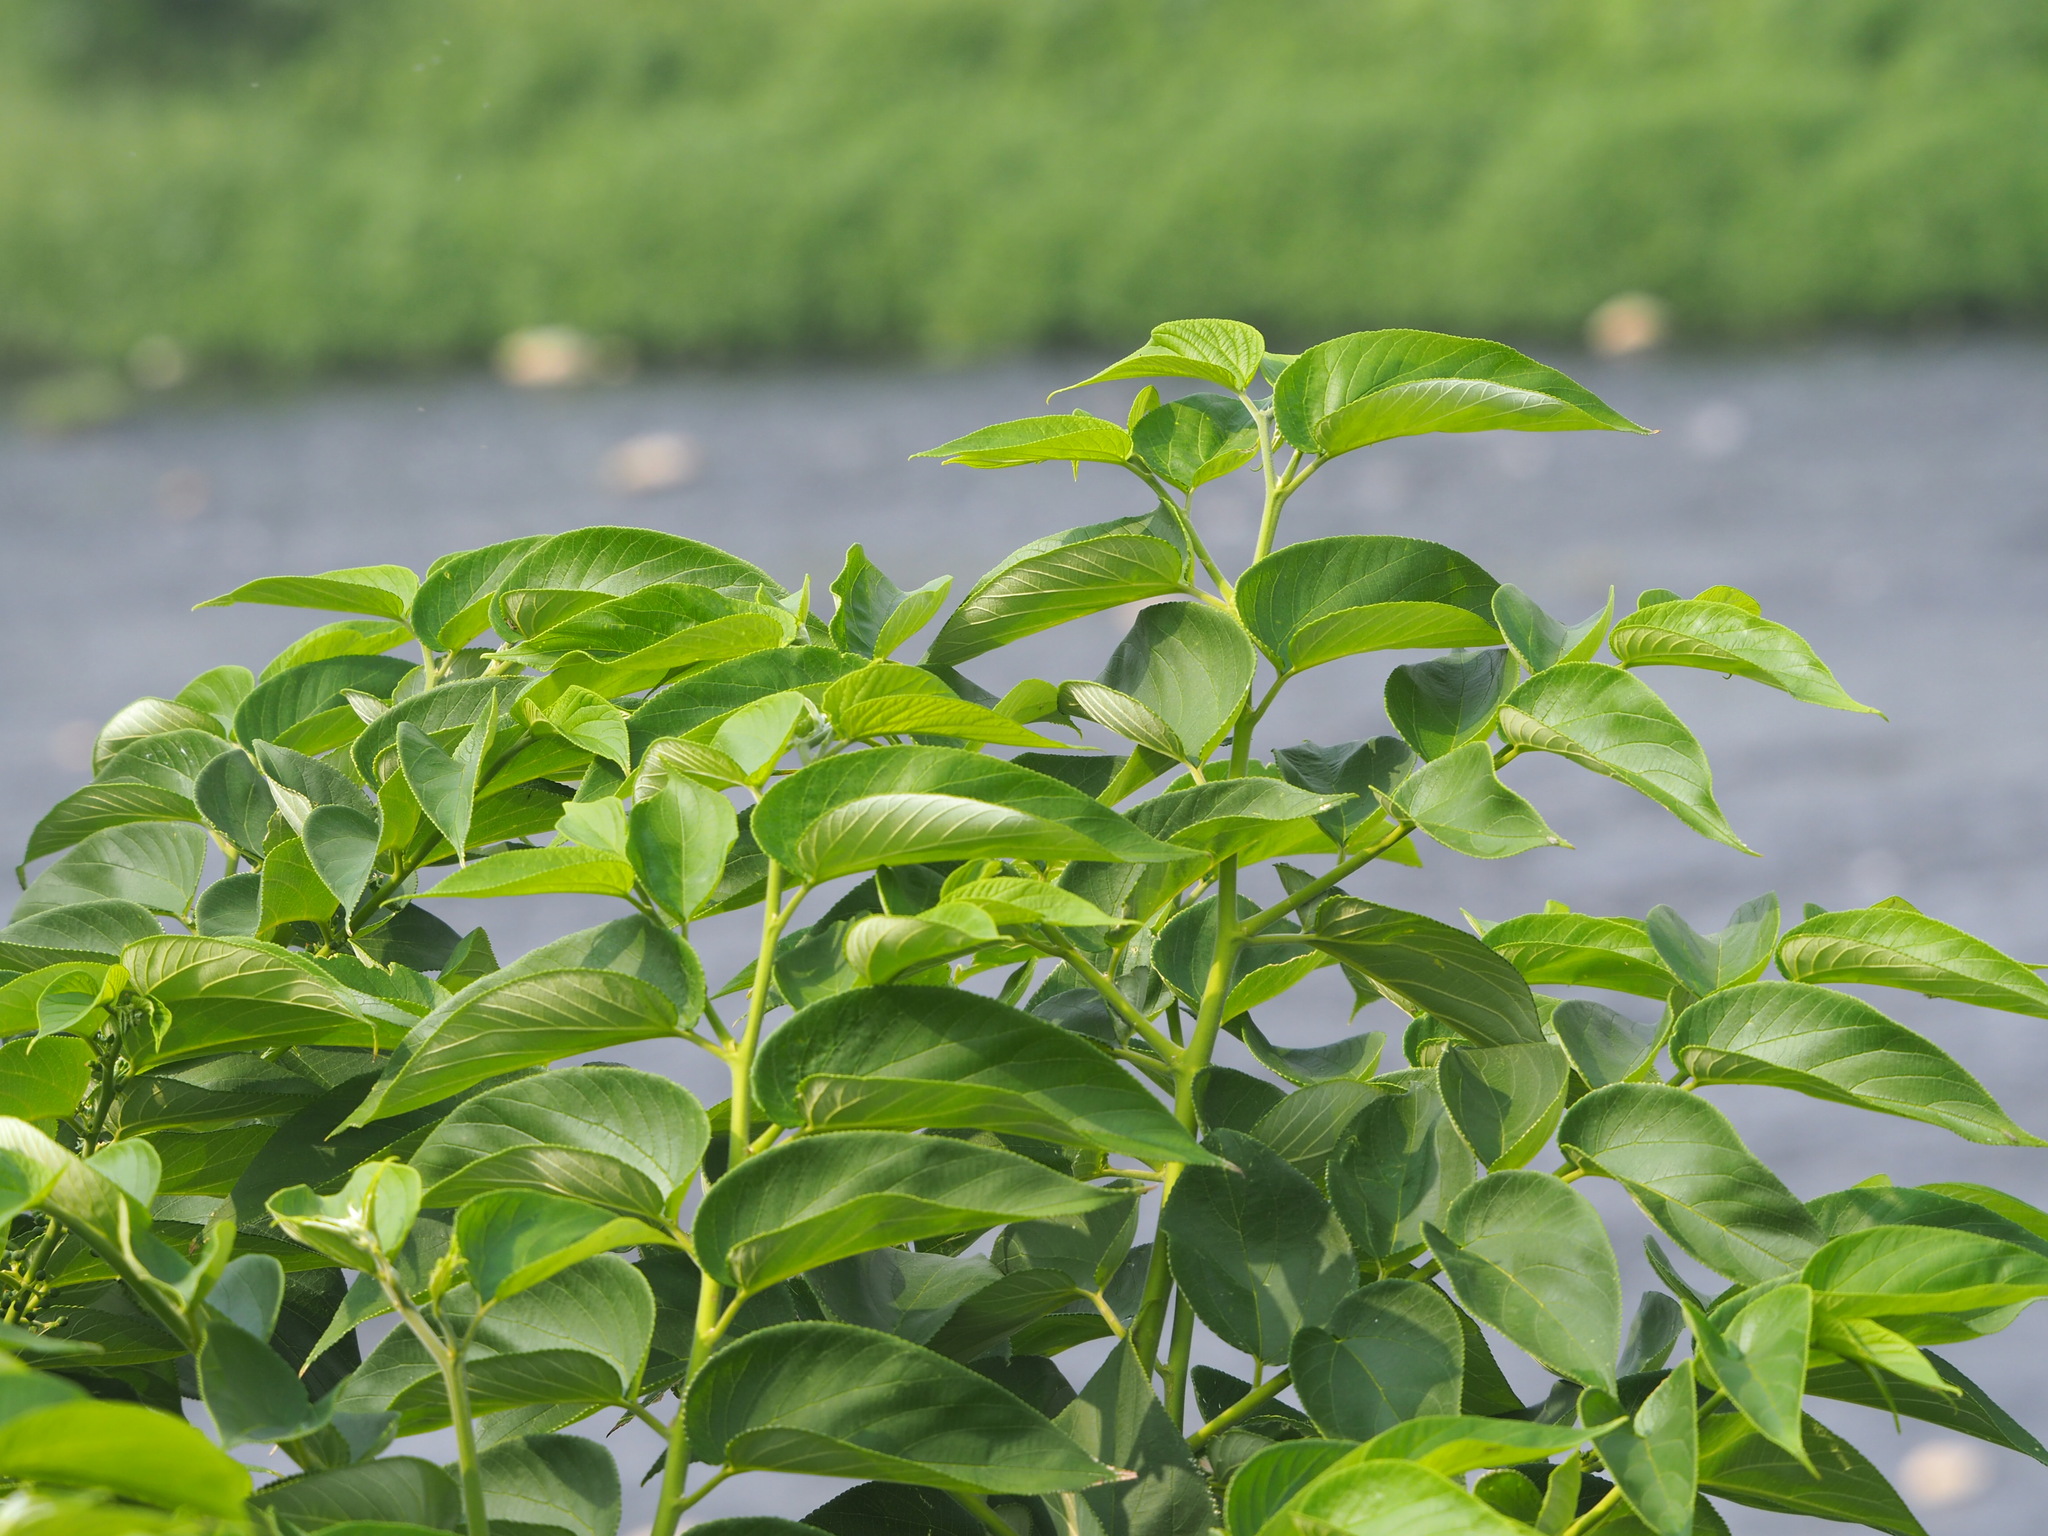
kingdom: Plantae
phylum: Tracheophyta
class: Magnoliopsida
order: Rosales
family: Cannabaceae
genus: Trema
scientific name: Trema orientale
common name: Indian charcoal tree
